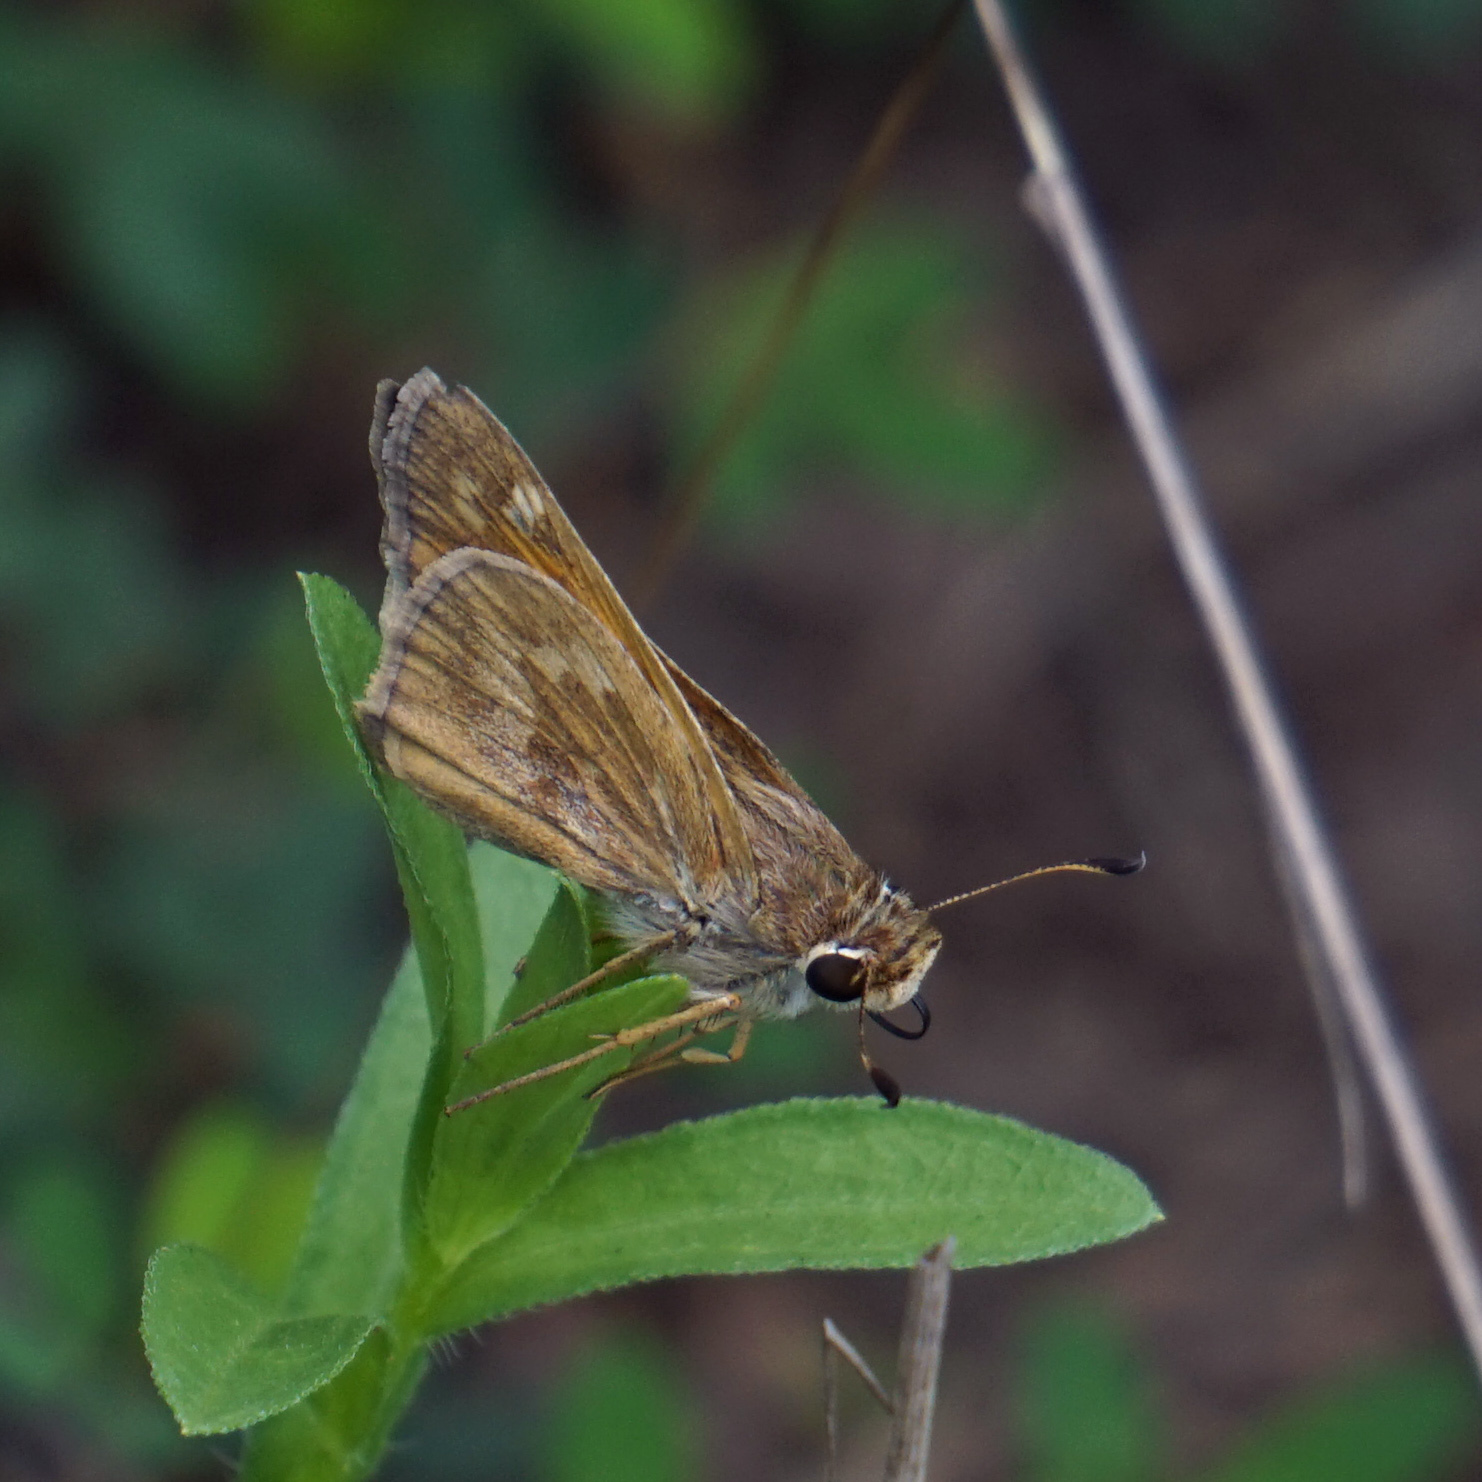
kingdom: Animalia
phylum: Arthropoda
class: Insecta
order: Lepidoptera
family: Hesperiidae
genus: Atalopedes
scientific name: Atalopedes
